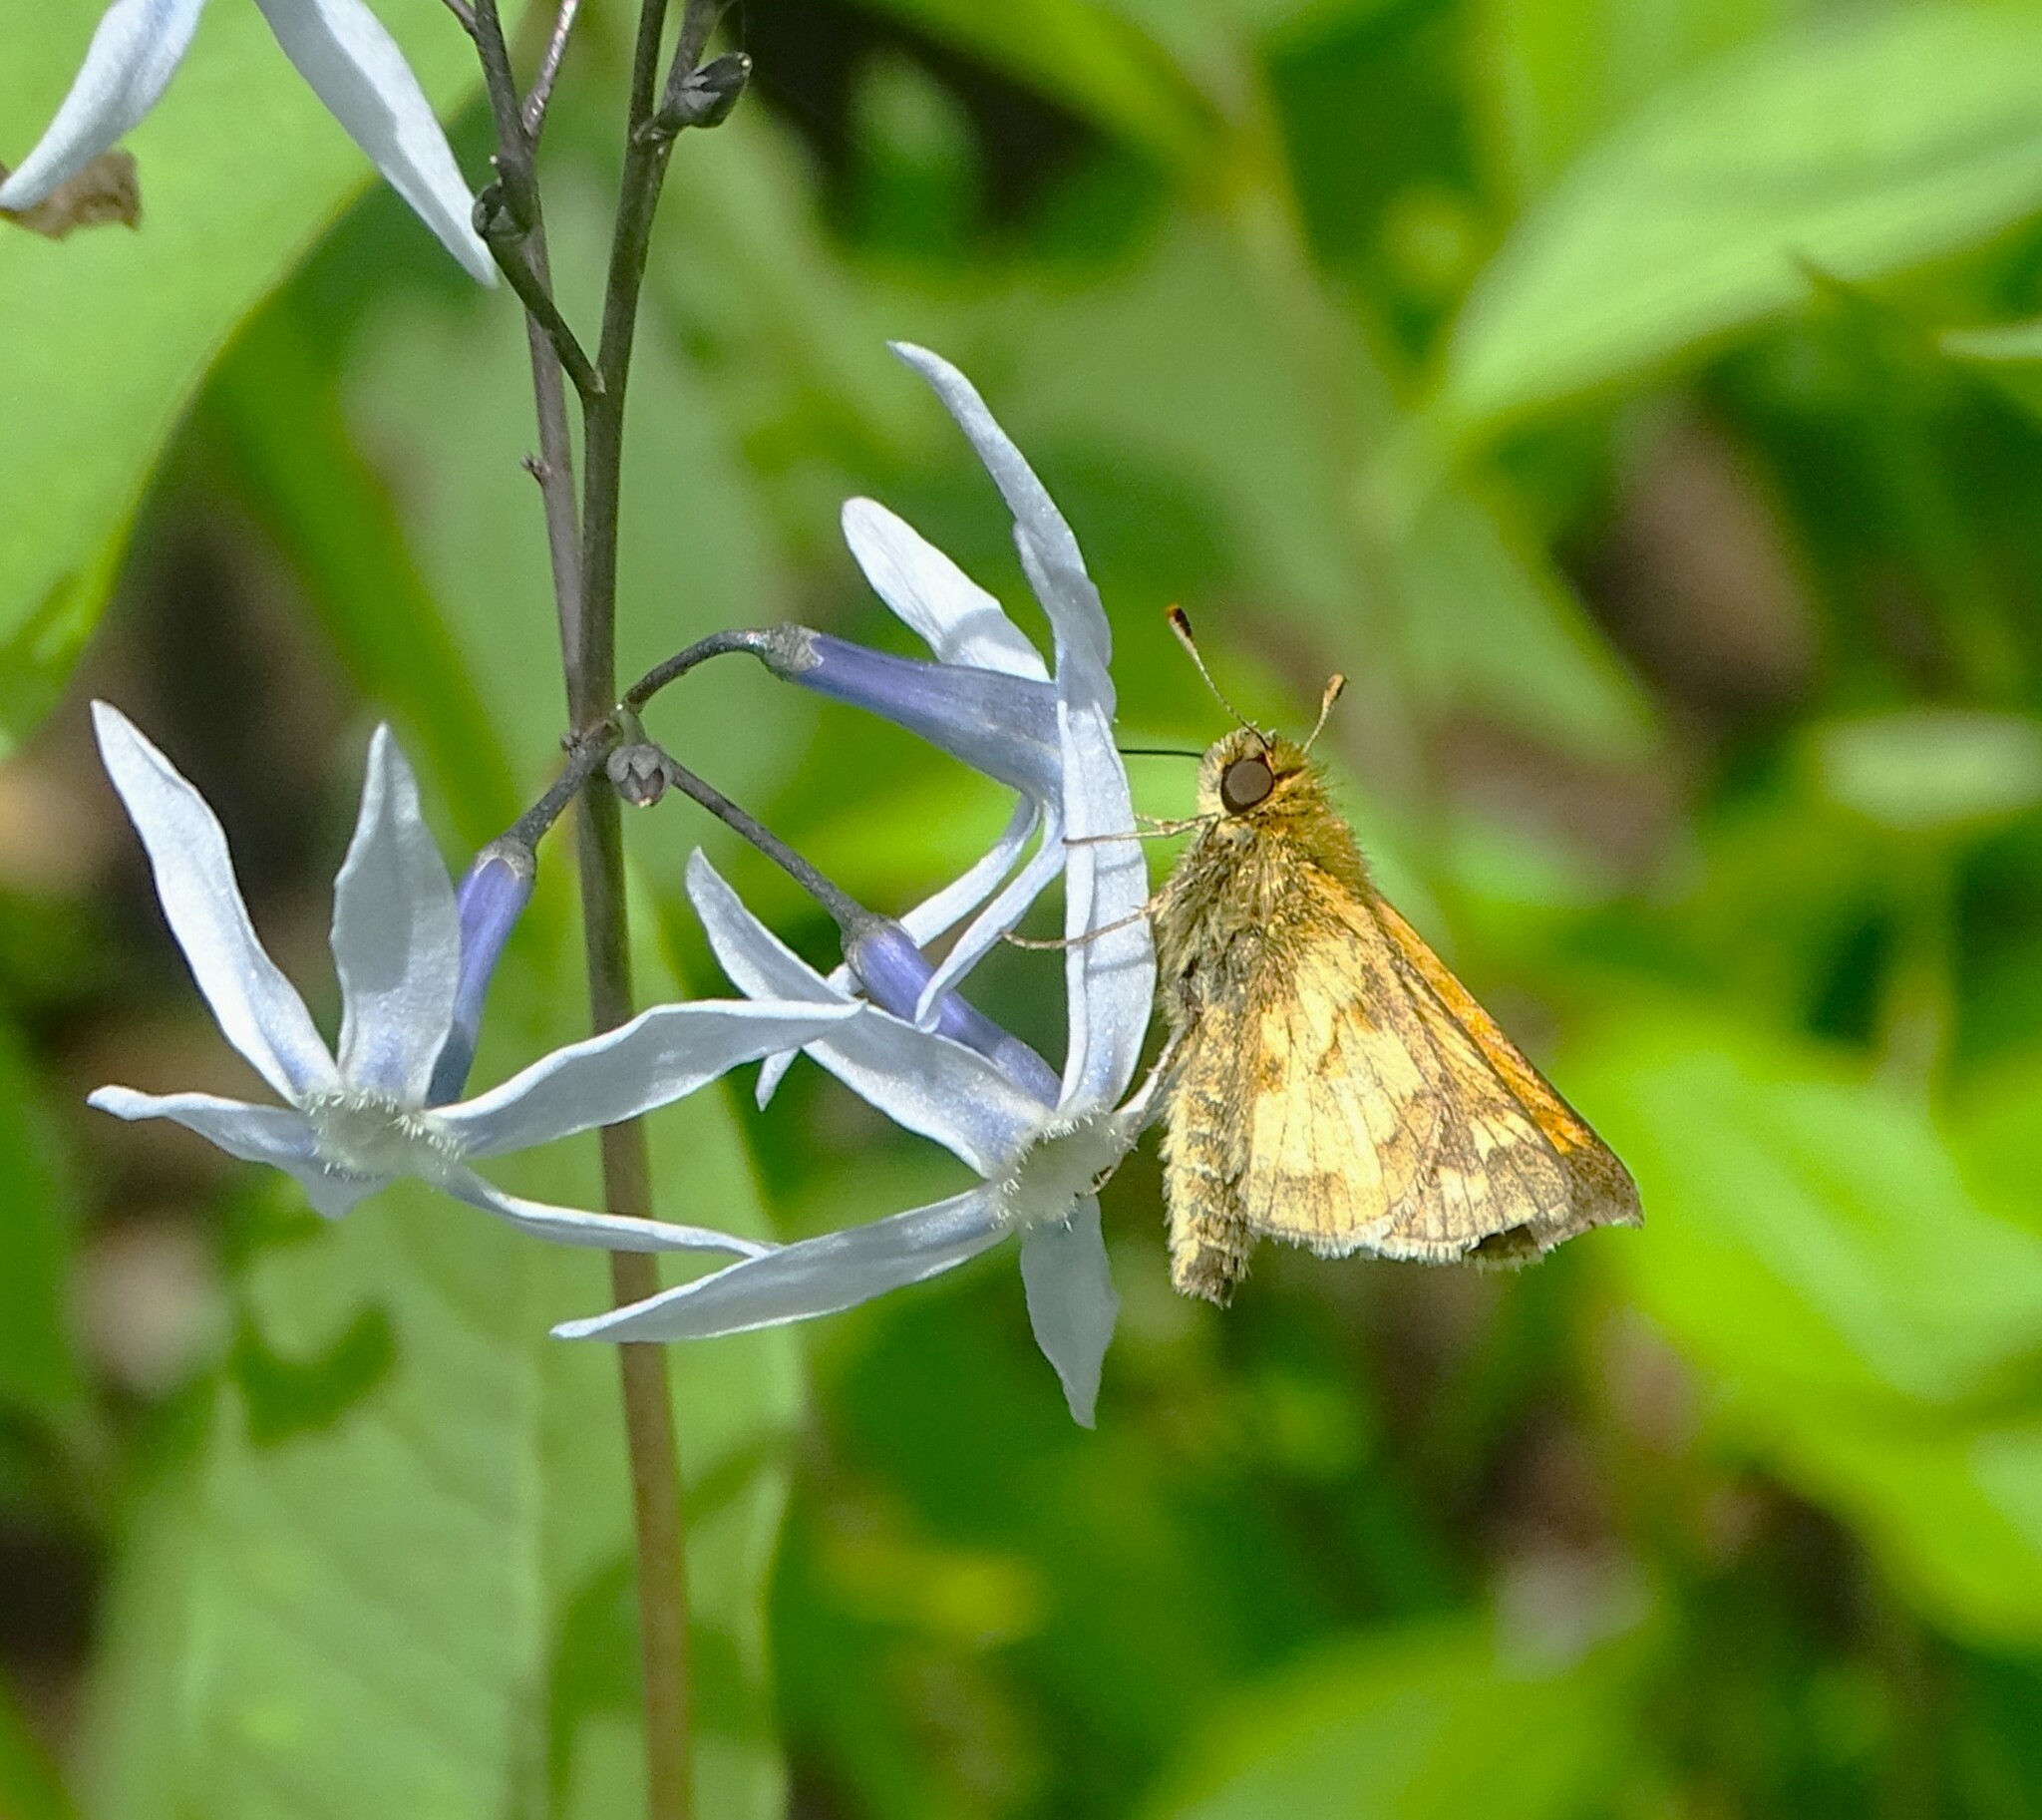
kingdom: Animalia
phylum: Arthropoda
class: Insecta
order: Lepidoptera
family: Hesperiidae
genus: Polites
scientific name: Polites coras
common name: Peck's skipper
